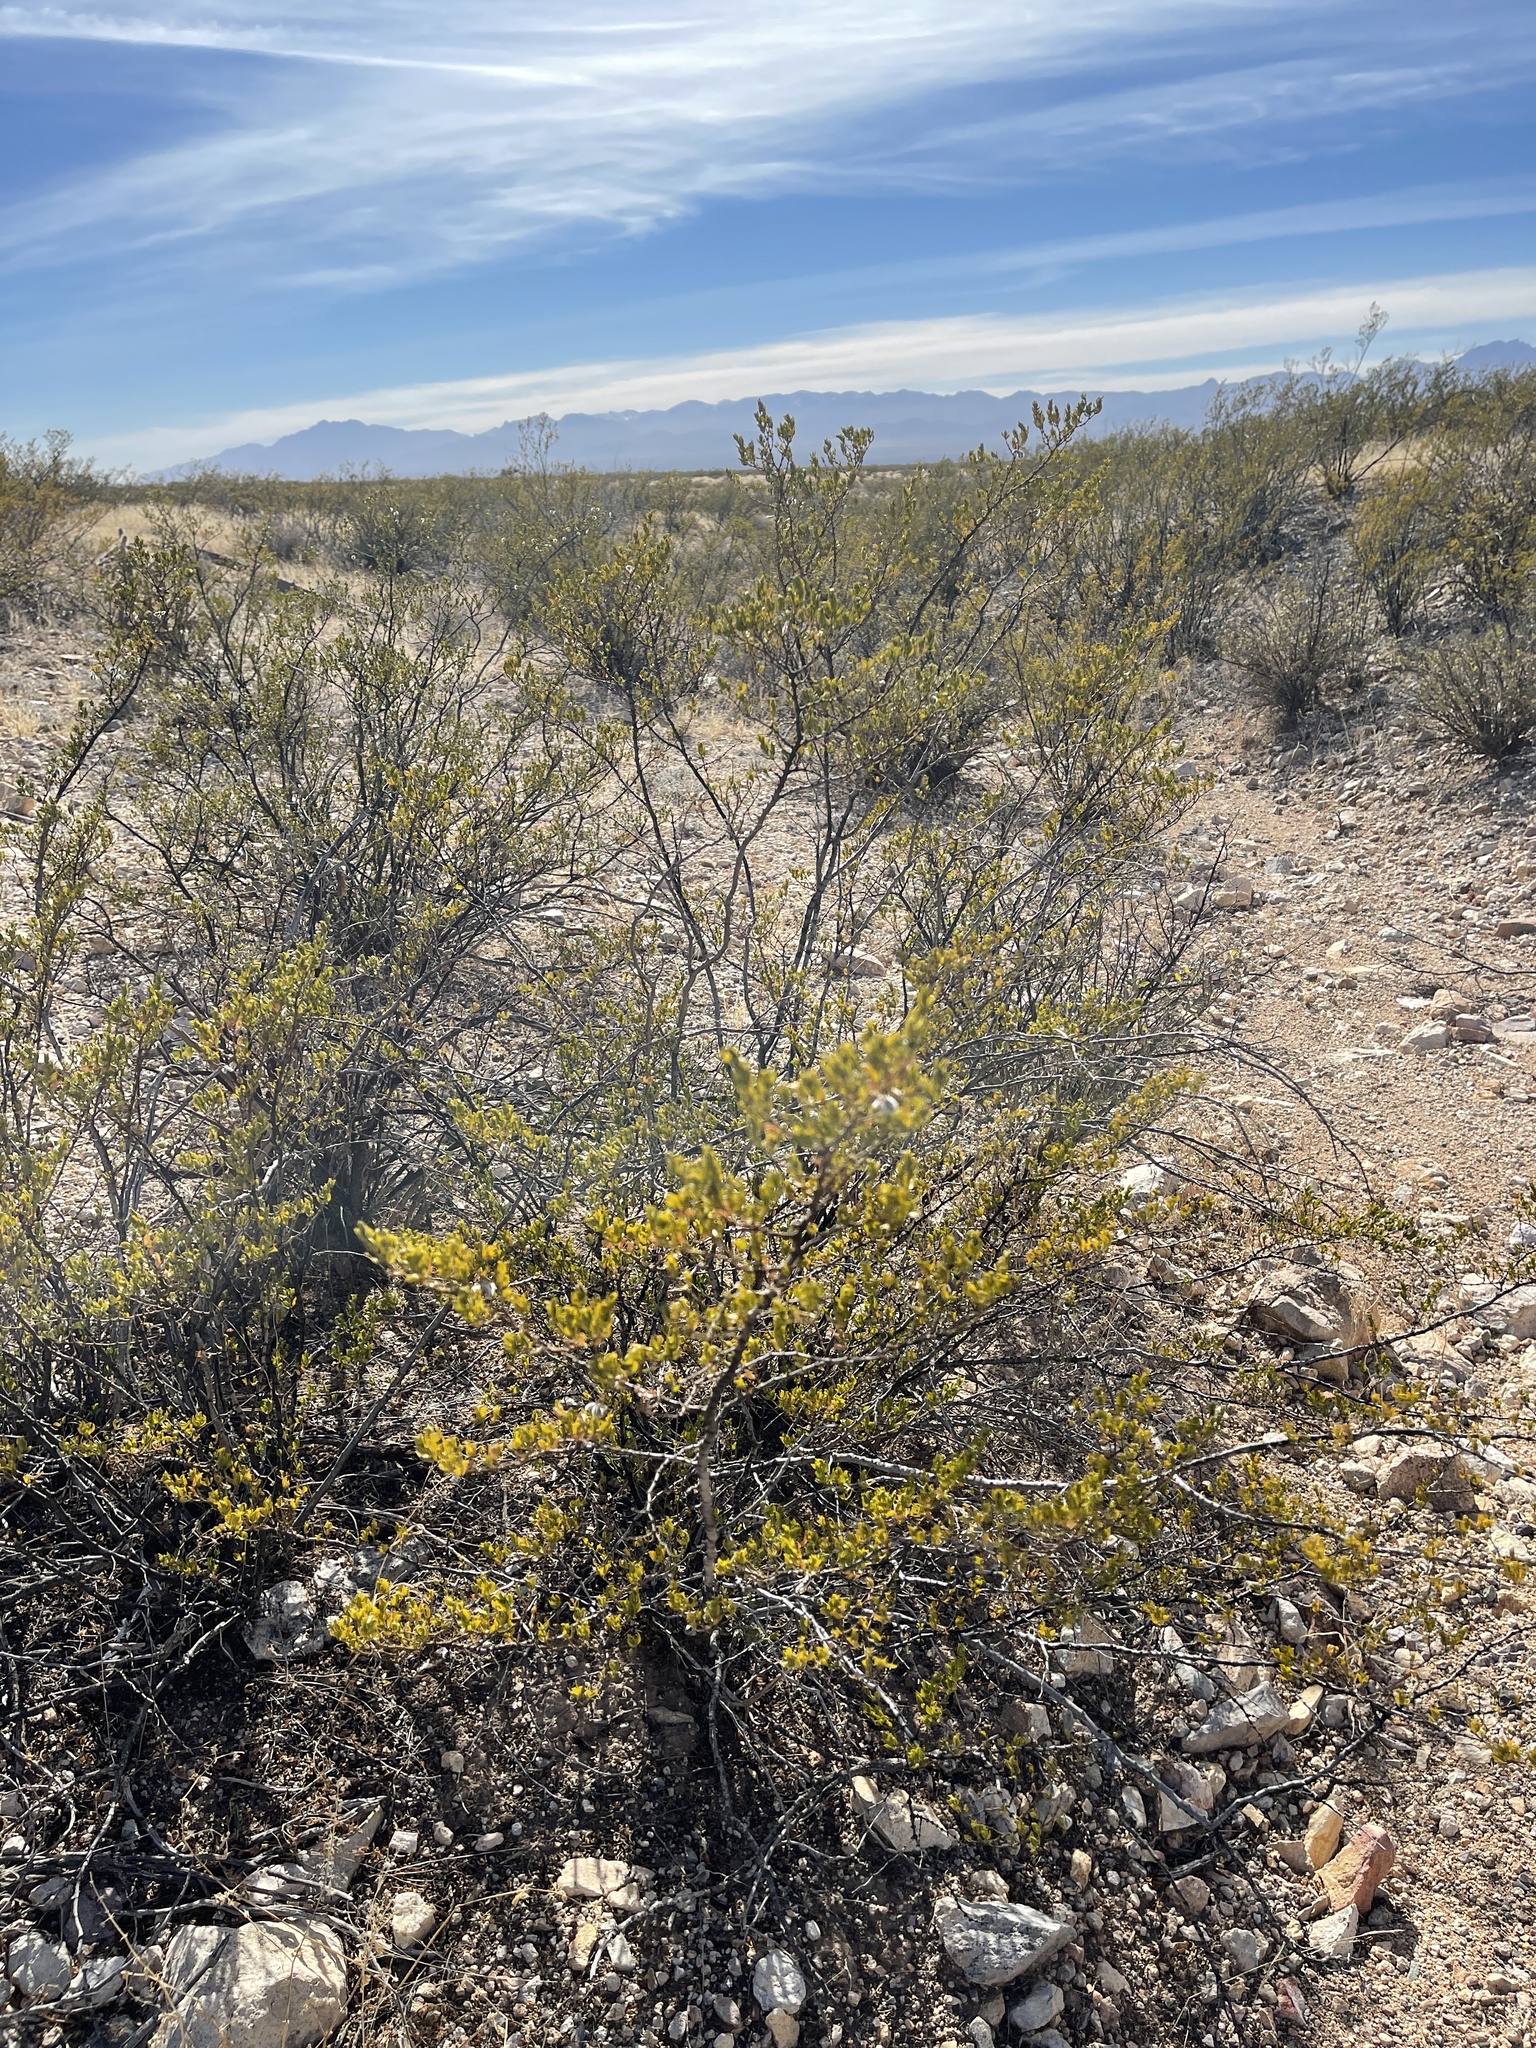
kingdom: Plantae
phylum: Tracheophyta
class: Magnoliopsida
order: Zygophyllales
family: Zygophyllaceae
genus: Larrea
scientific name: Larrea tridentata
